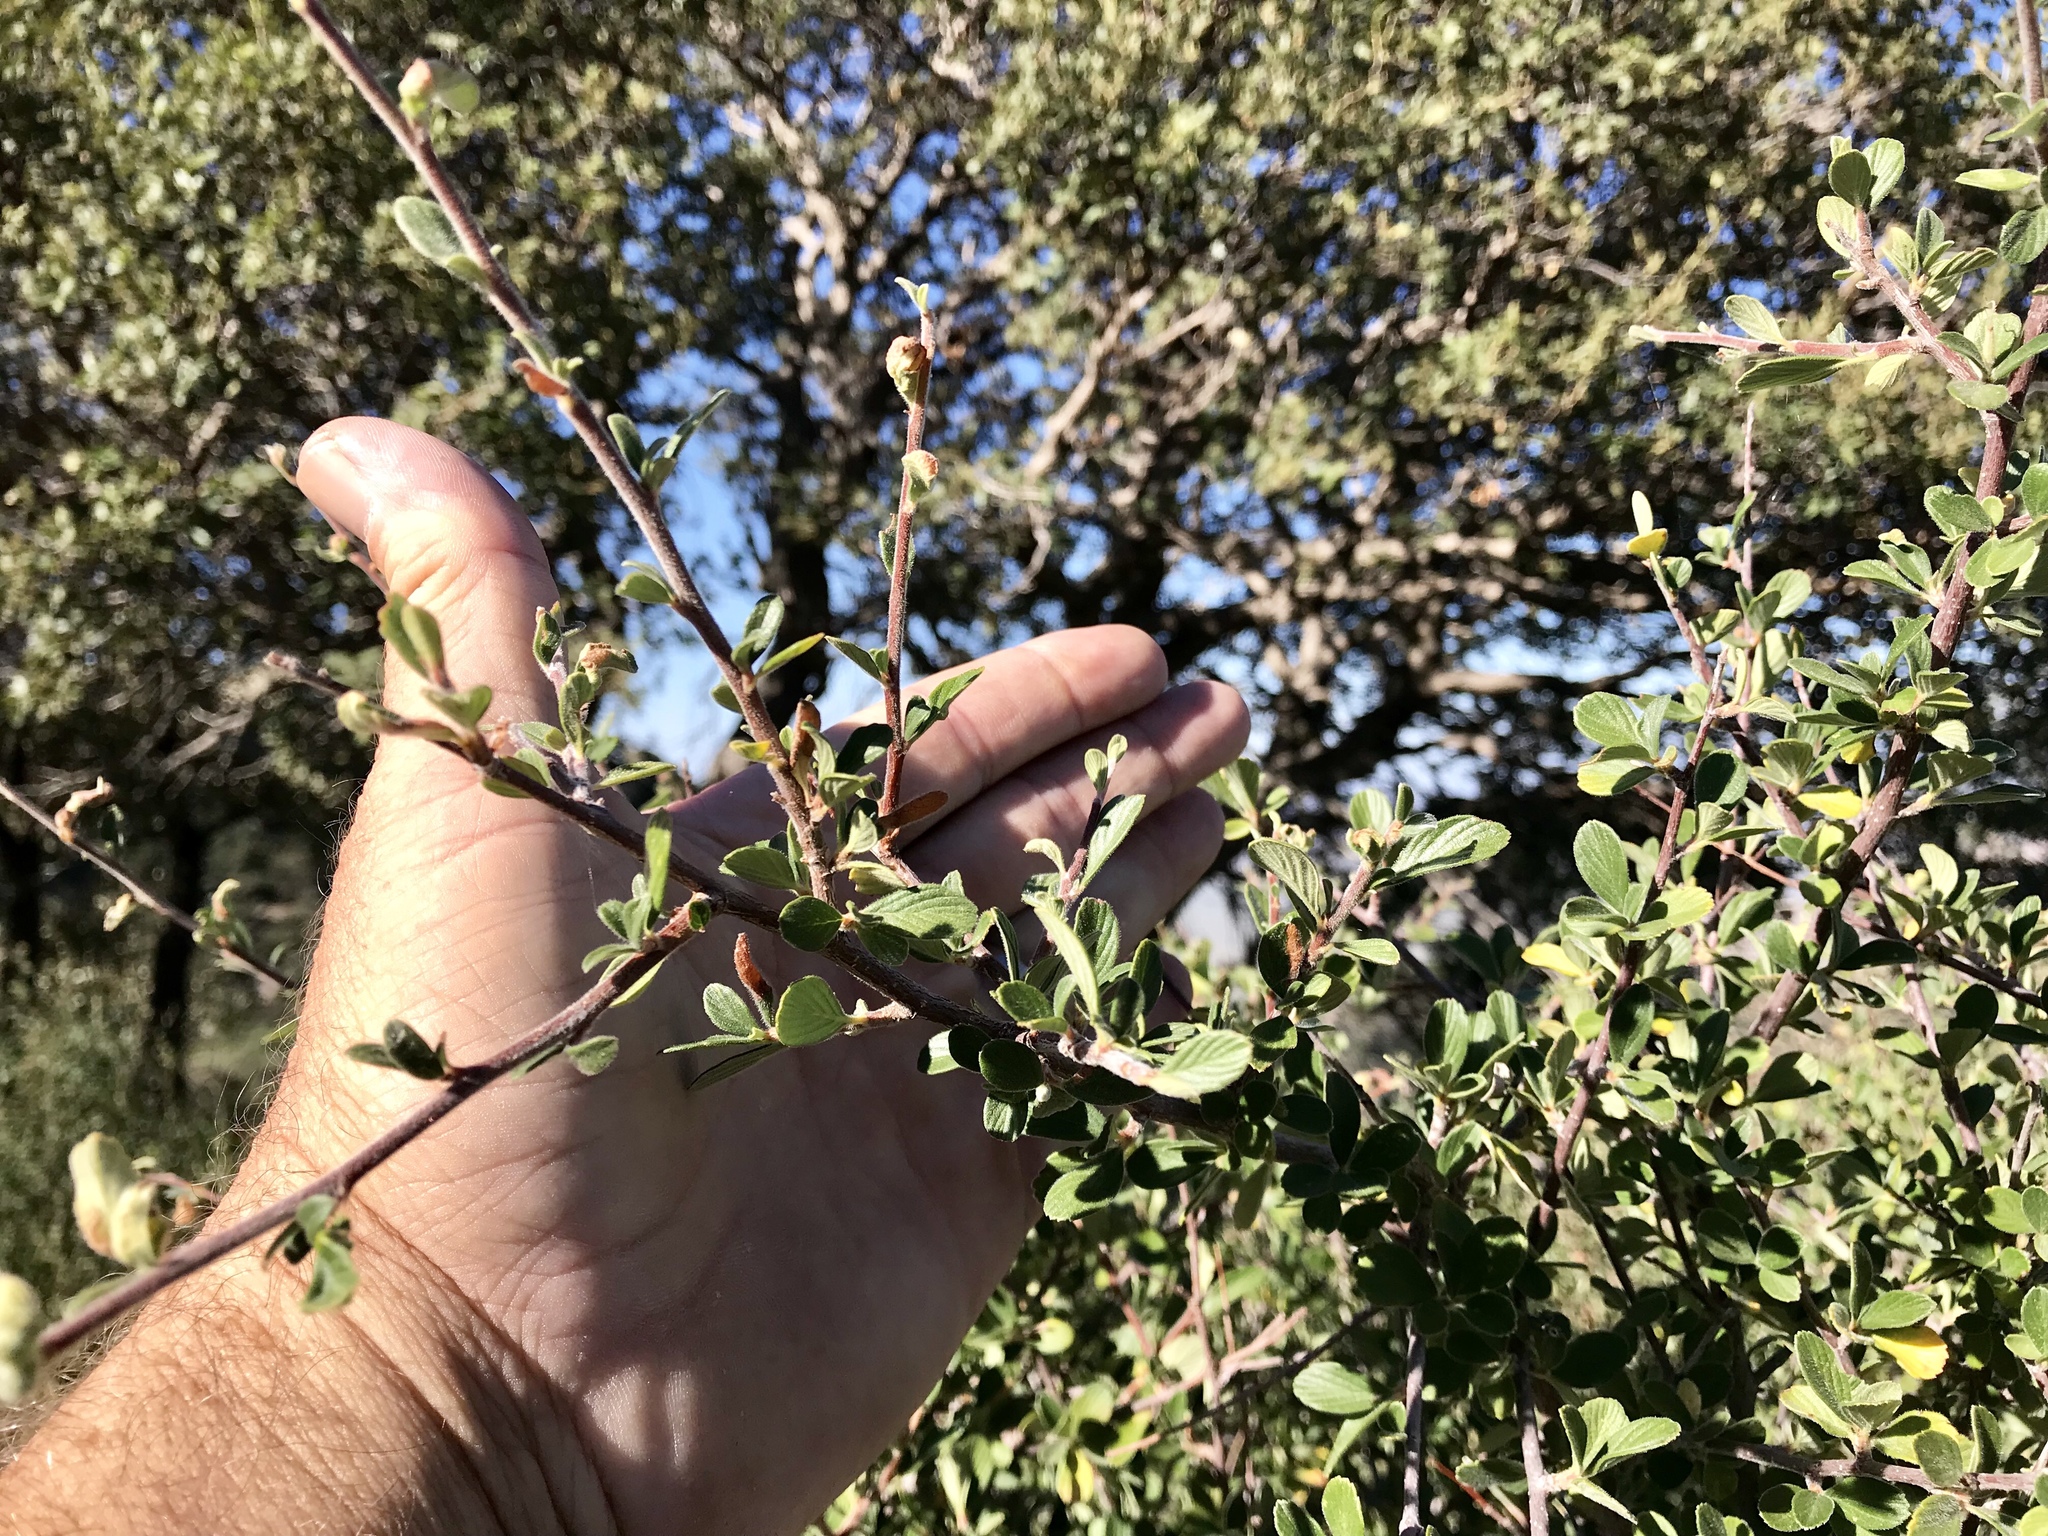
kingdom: Plantae
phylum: Tracheophyta
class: Magnoliopsida
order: Rosales
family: Rosaceae
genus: Cercocarpus
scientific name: Cercocarpus betuloides
